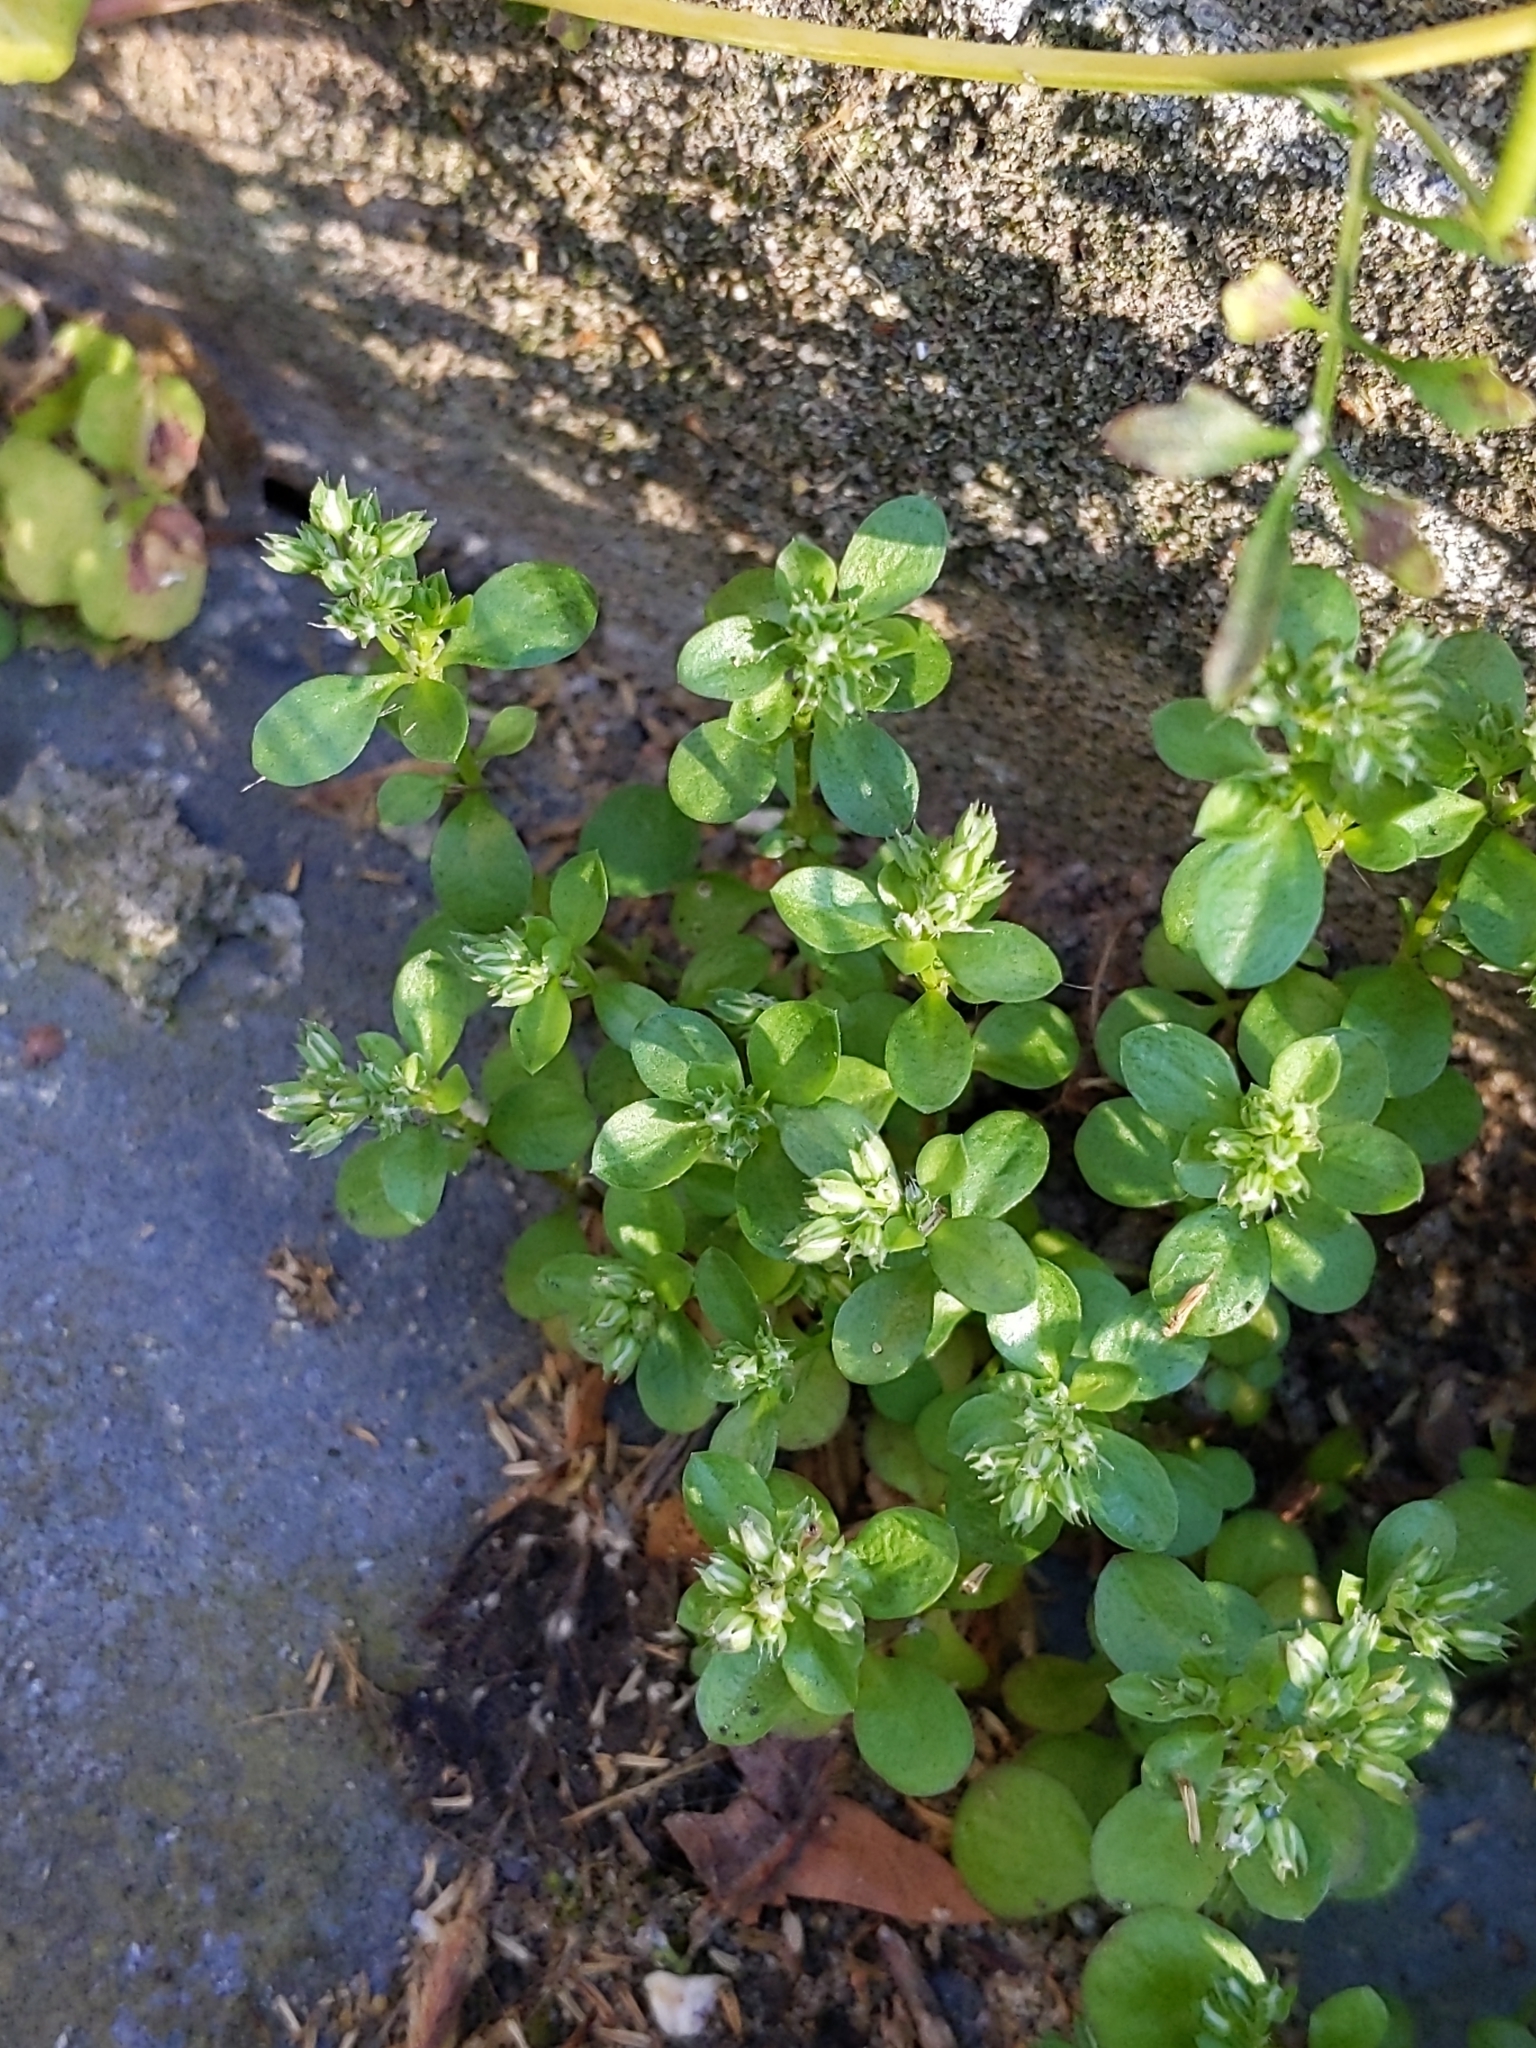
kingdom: Plantae
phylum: Tracheophyta
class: Magnoliopsida
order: Caryophyllales
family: Caryophyllaceae
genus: Polycarpon
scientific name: Polycarpon tetraphyllum
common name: Four-leaved all-seed
